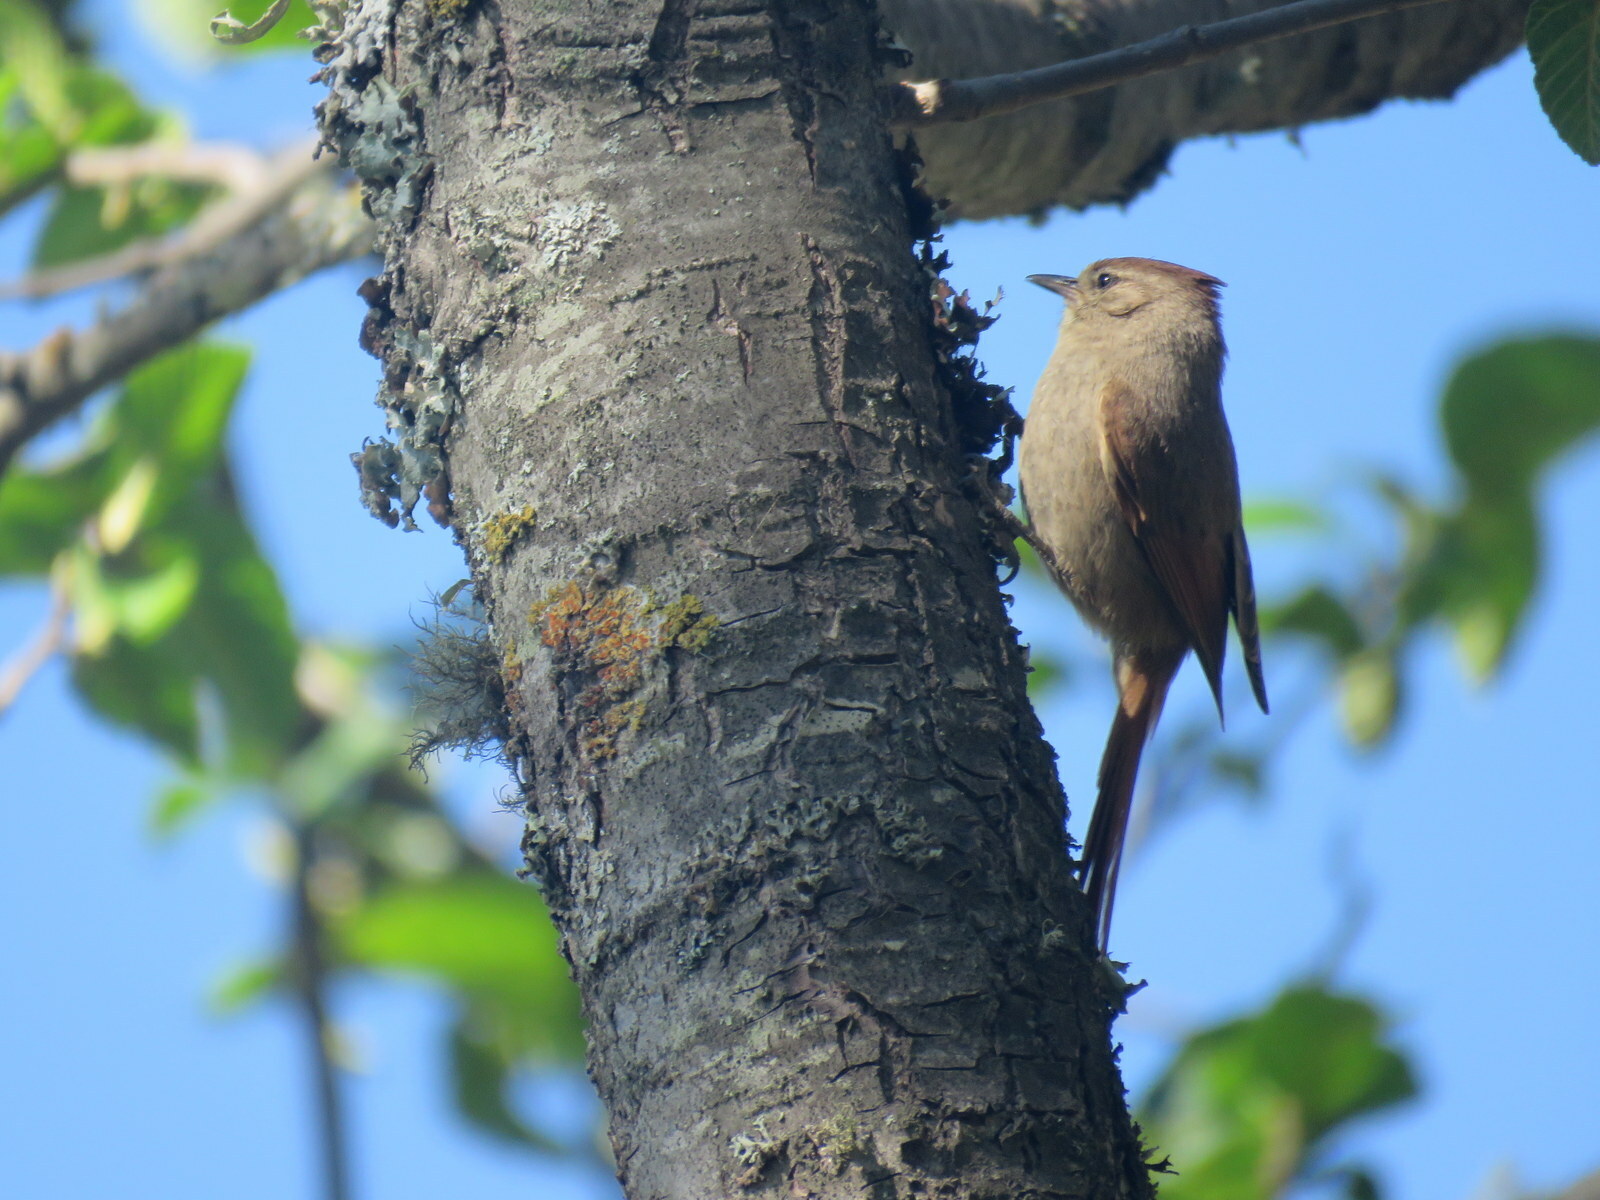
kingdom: Animalia
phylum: Chordata
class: Aves
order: Passeriformes
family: Furnariidae
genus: Leptasthenura
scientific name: Leptasthenura fuliginiceps
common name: Brown-capped tit-spinetail
